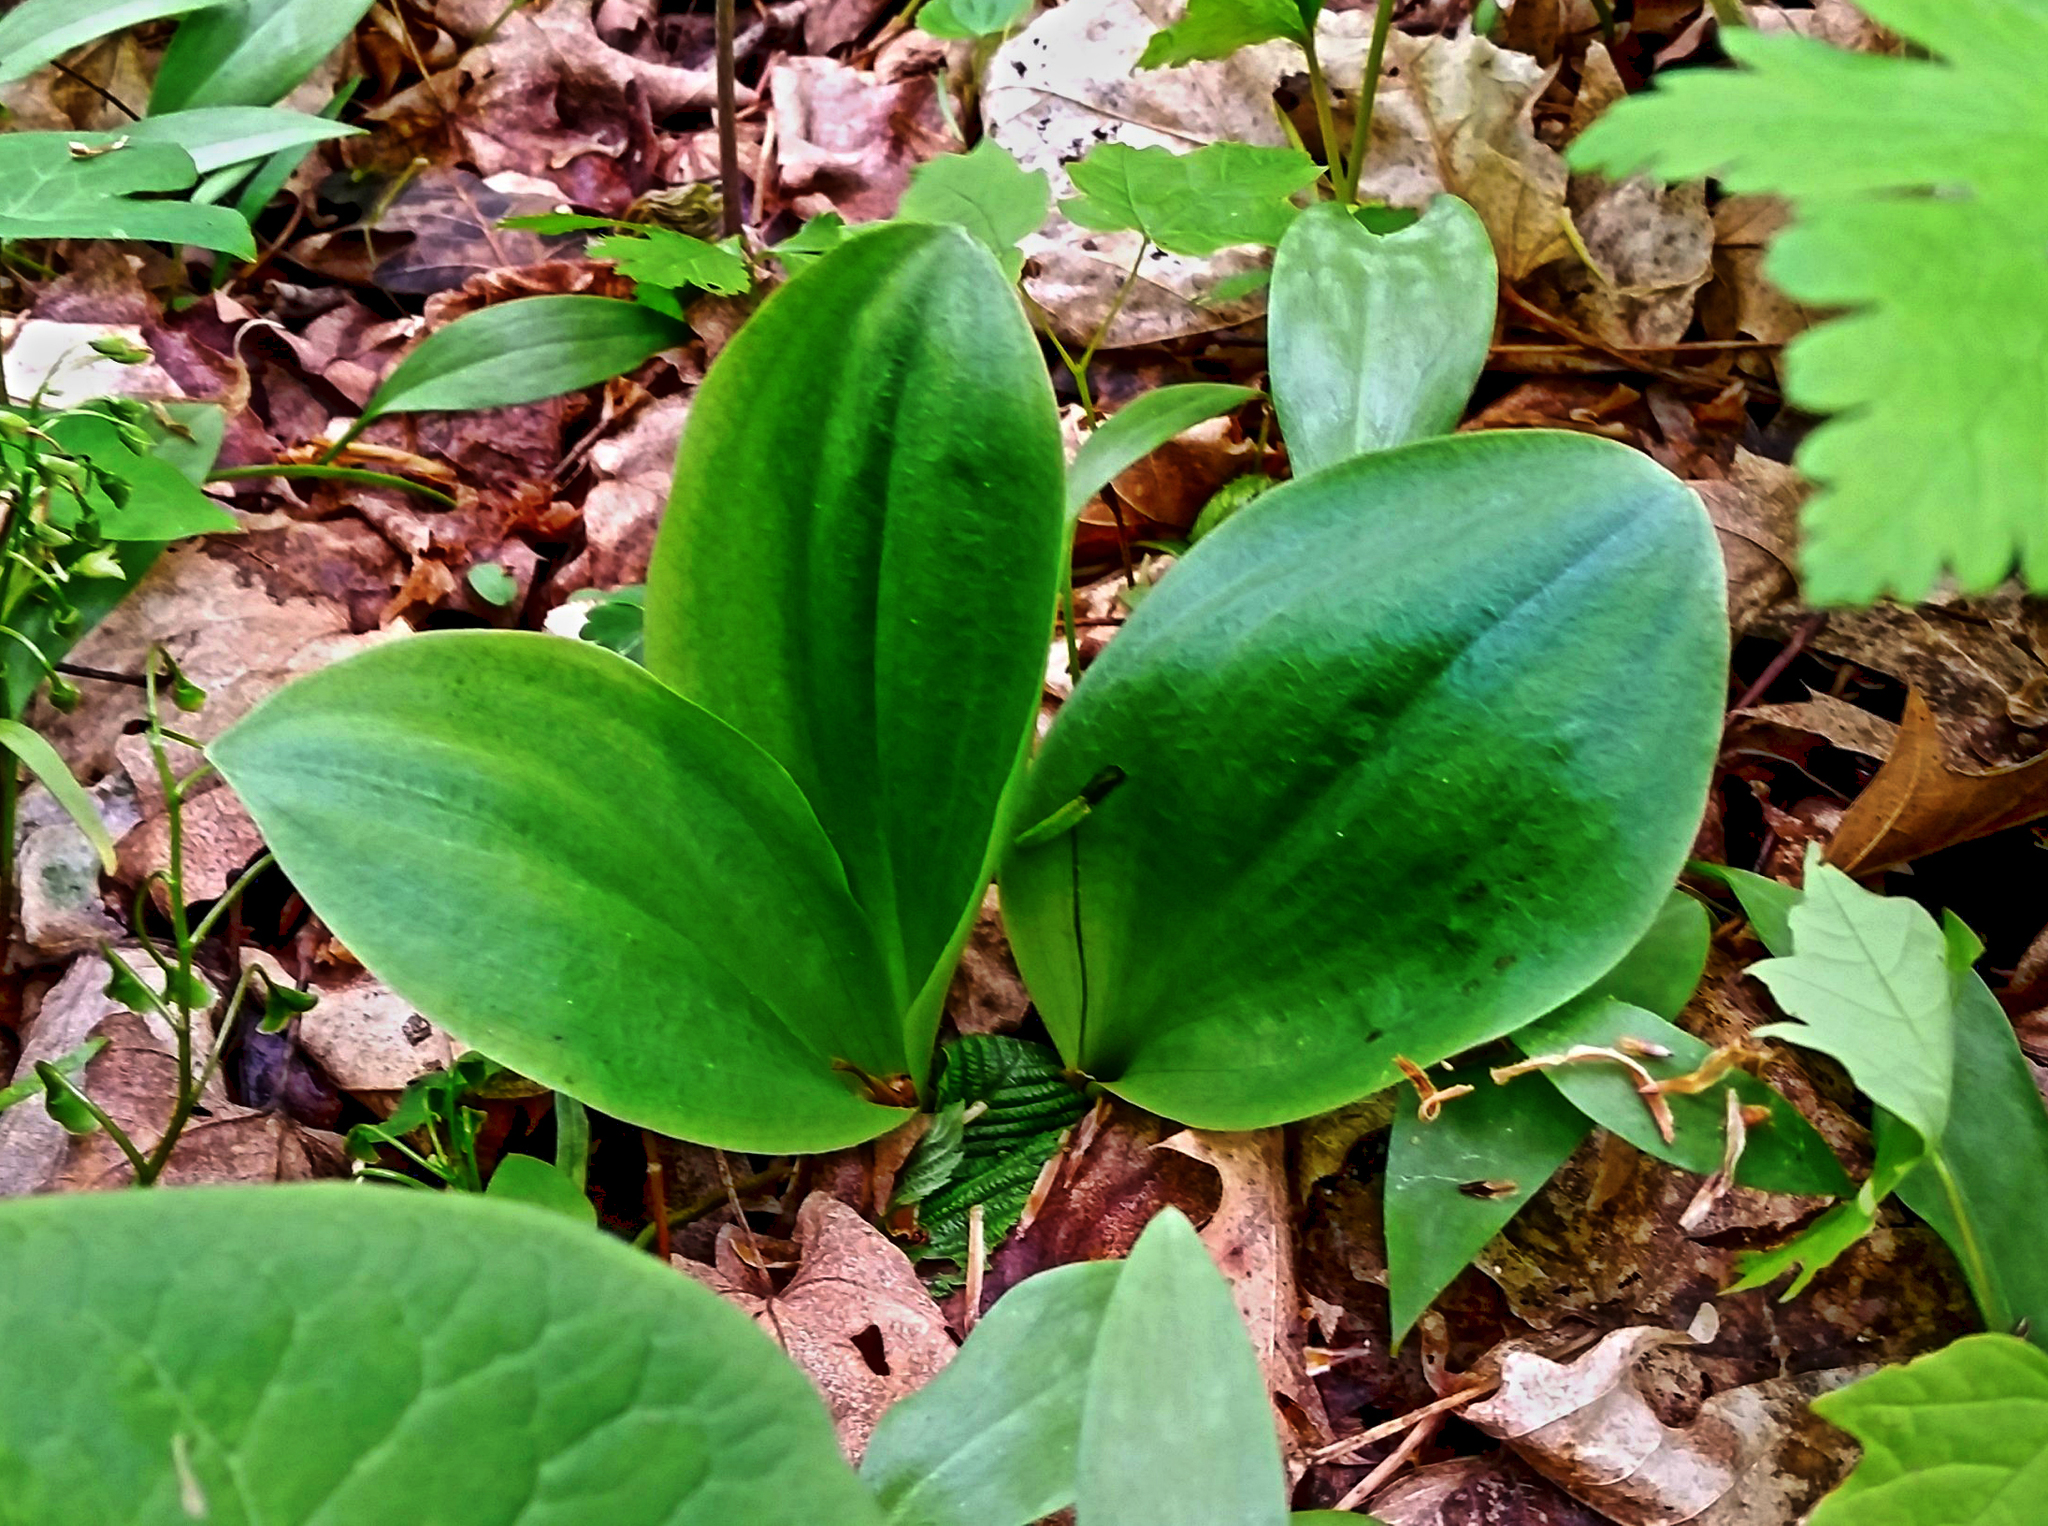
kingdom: Plantae
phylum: Tracheophyta
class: Liliopsida
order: Asparagales
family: Orchidaceae
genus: Galearis
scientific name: Galearis spectabilis
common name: Purple-hooded orchis
